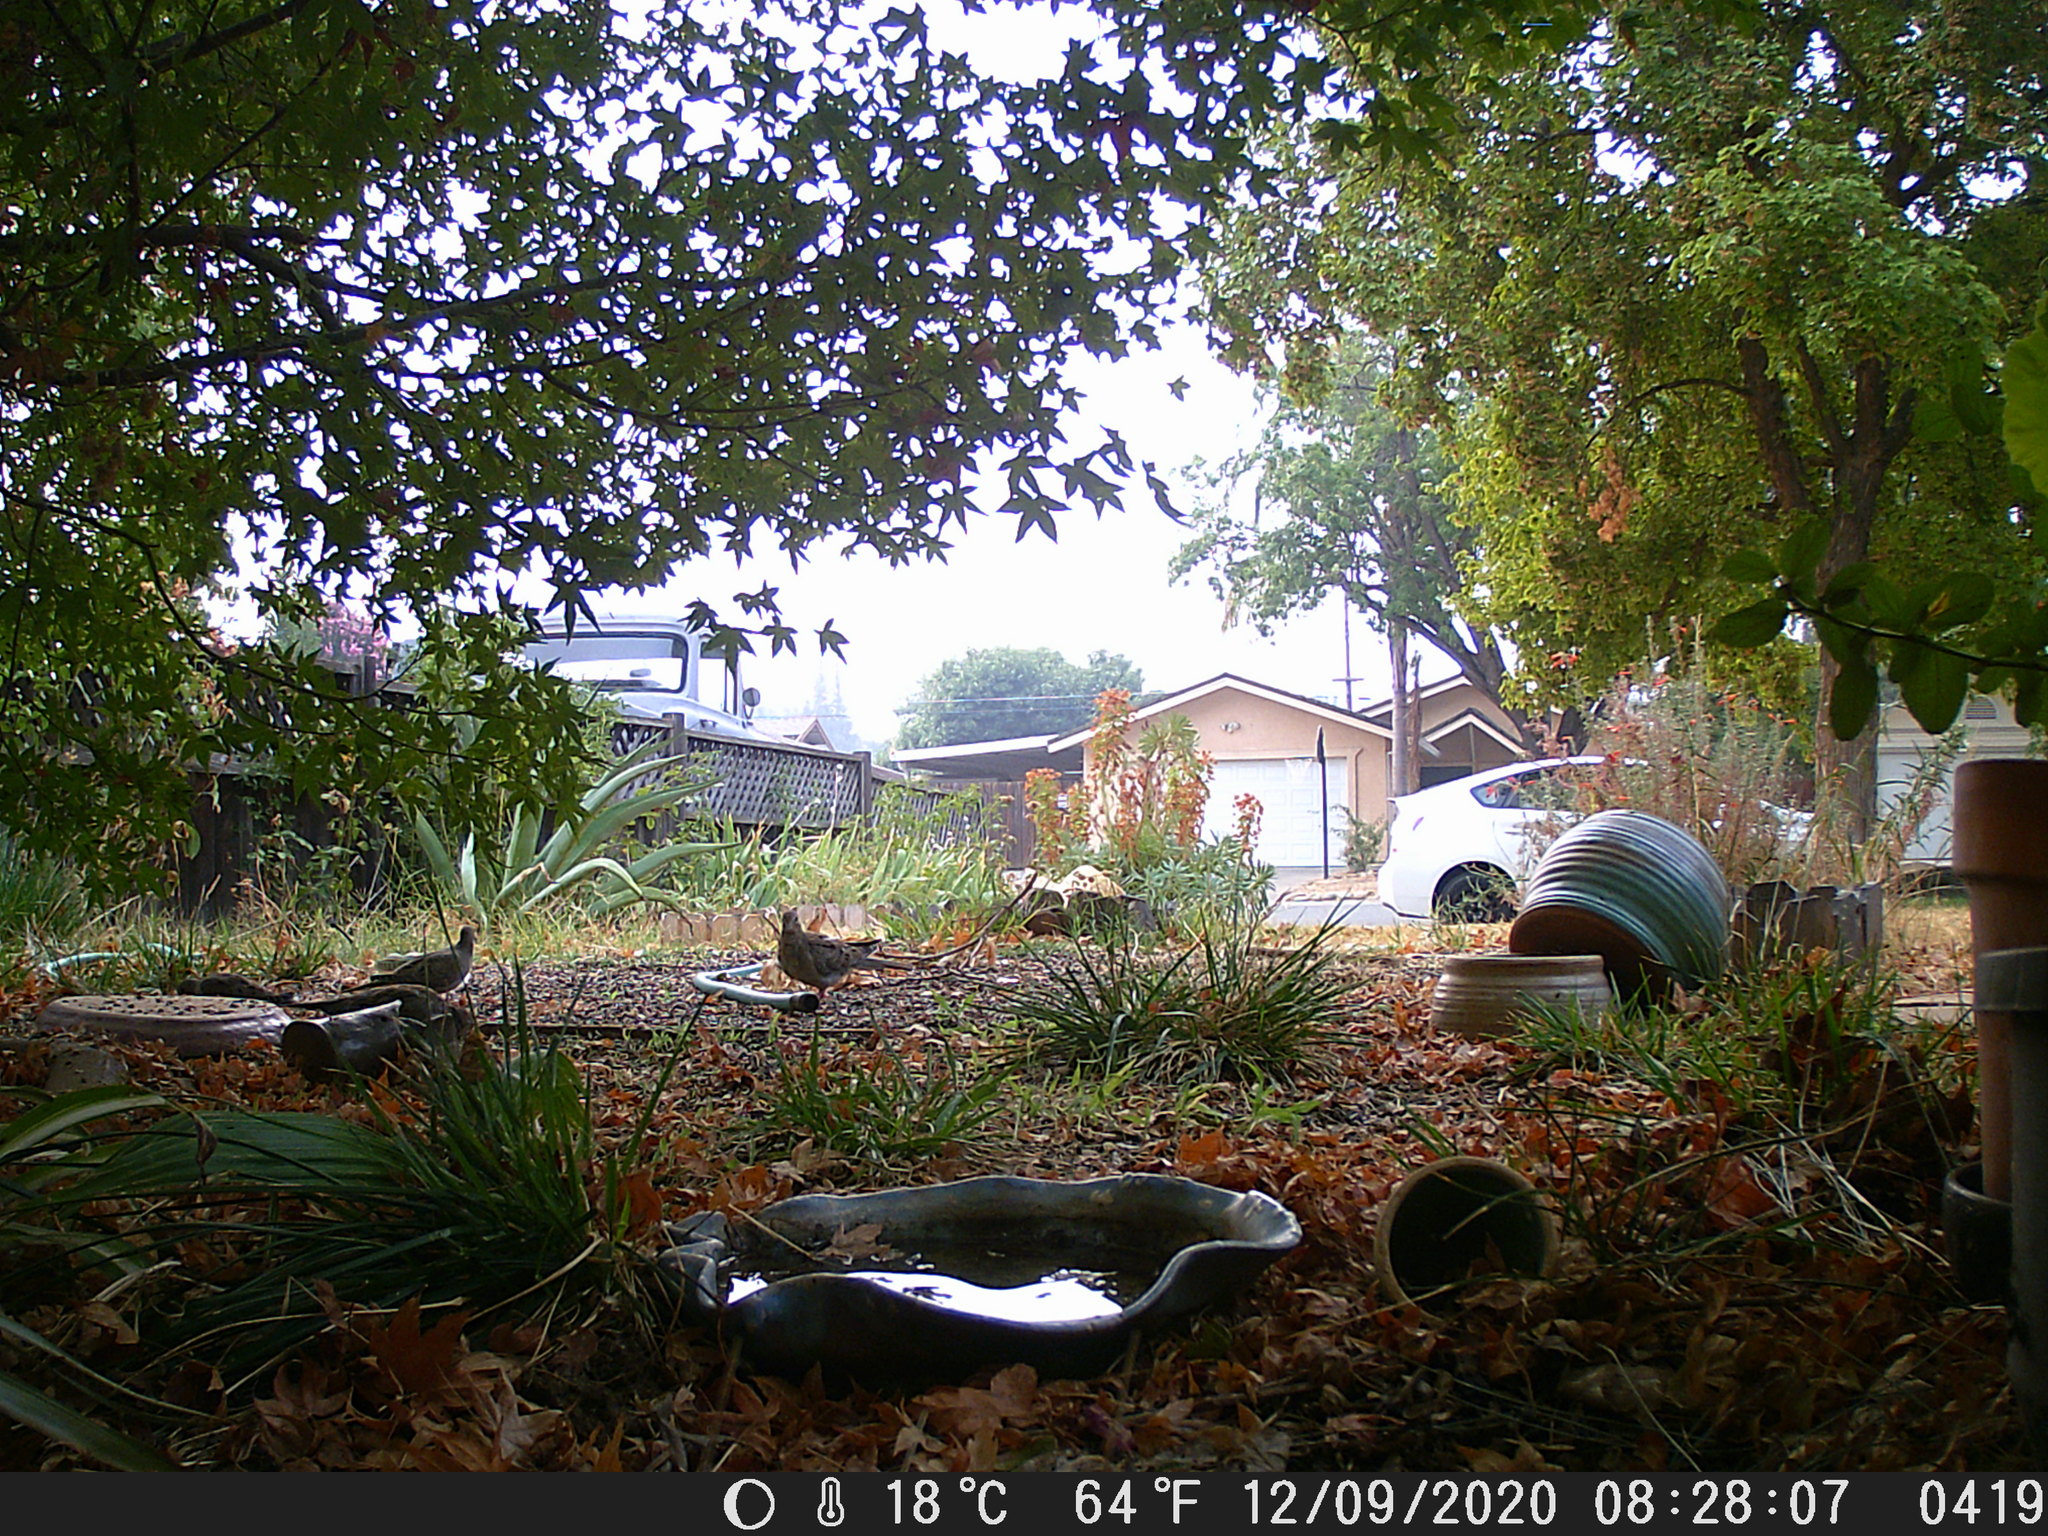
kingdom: Animalia
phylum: Chordata
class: Aves
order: Columbiformes
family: Columbidae
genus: Zenaida
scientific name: Zenaida macroura
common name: Mourning dove
